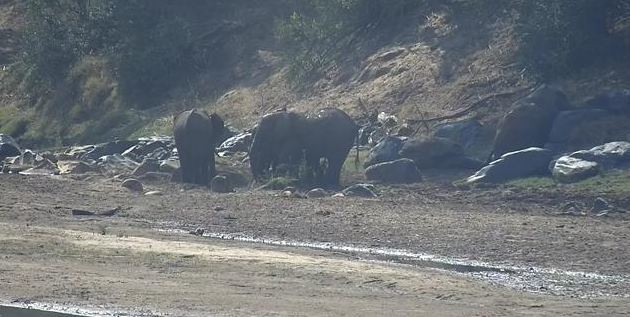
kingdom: Animalia
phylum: Chordata
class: Mammalia
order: Proboscidea
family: Elephantidae
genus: Loxodonta
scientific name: Loxodonta africana
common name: African elephant
